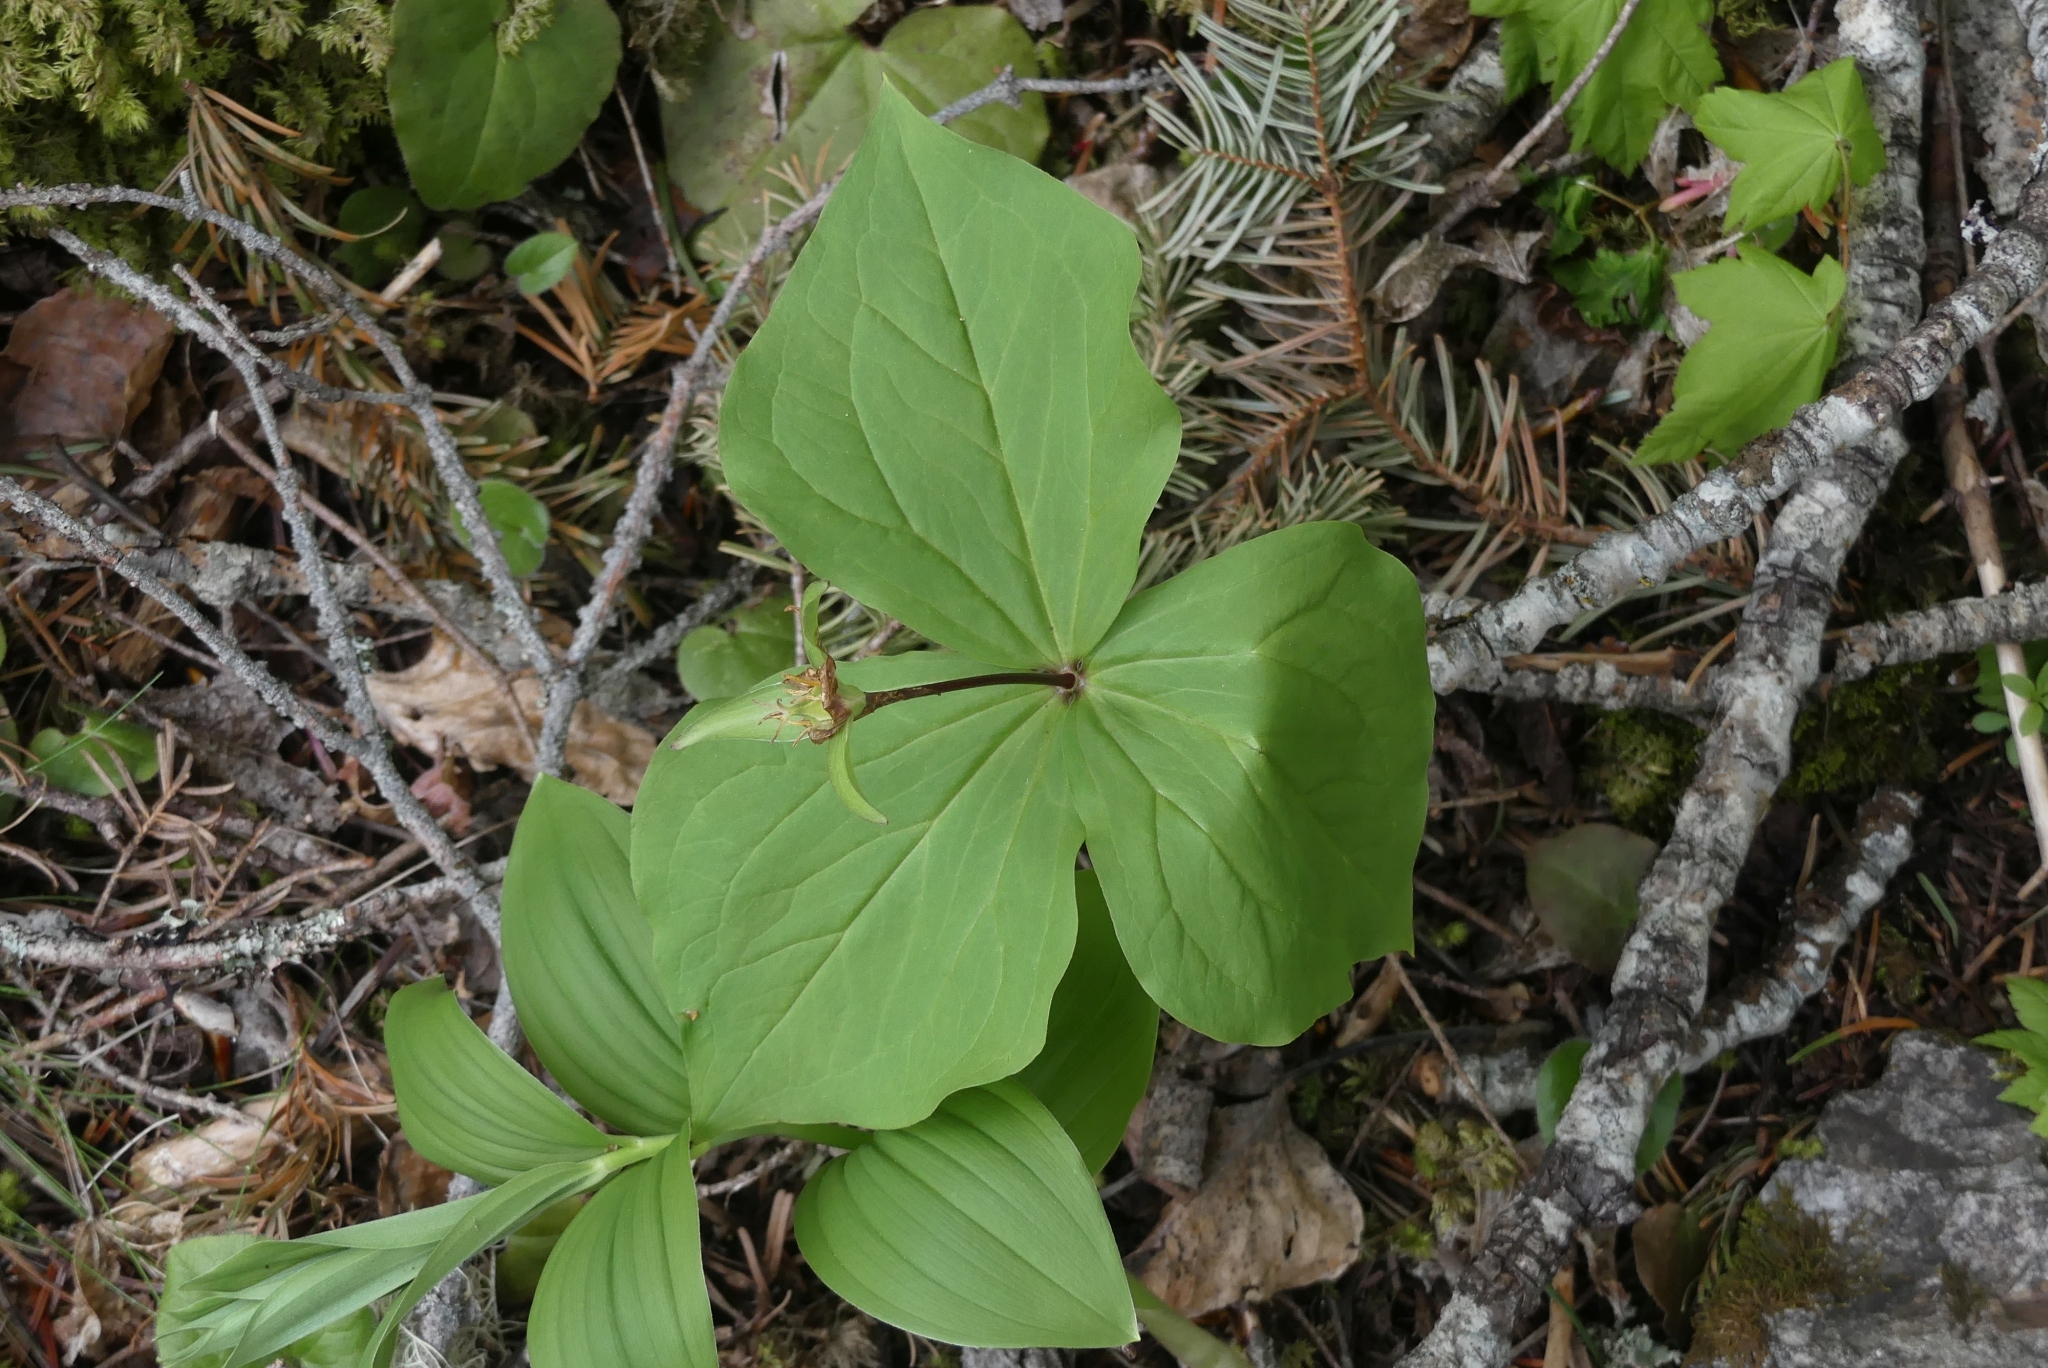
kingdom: Plantae
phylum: Tracheophyta
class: Liliopsida
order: Liliales
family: Melanthiaceae
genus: Trillium
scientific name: Trillium ovatum
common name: Pacific trillium
